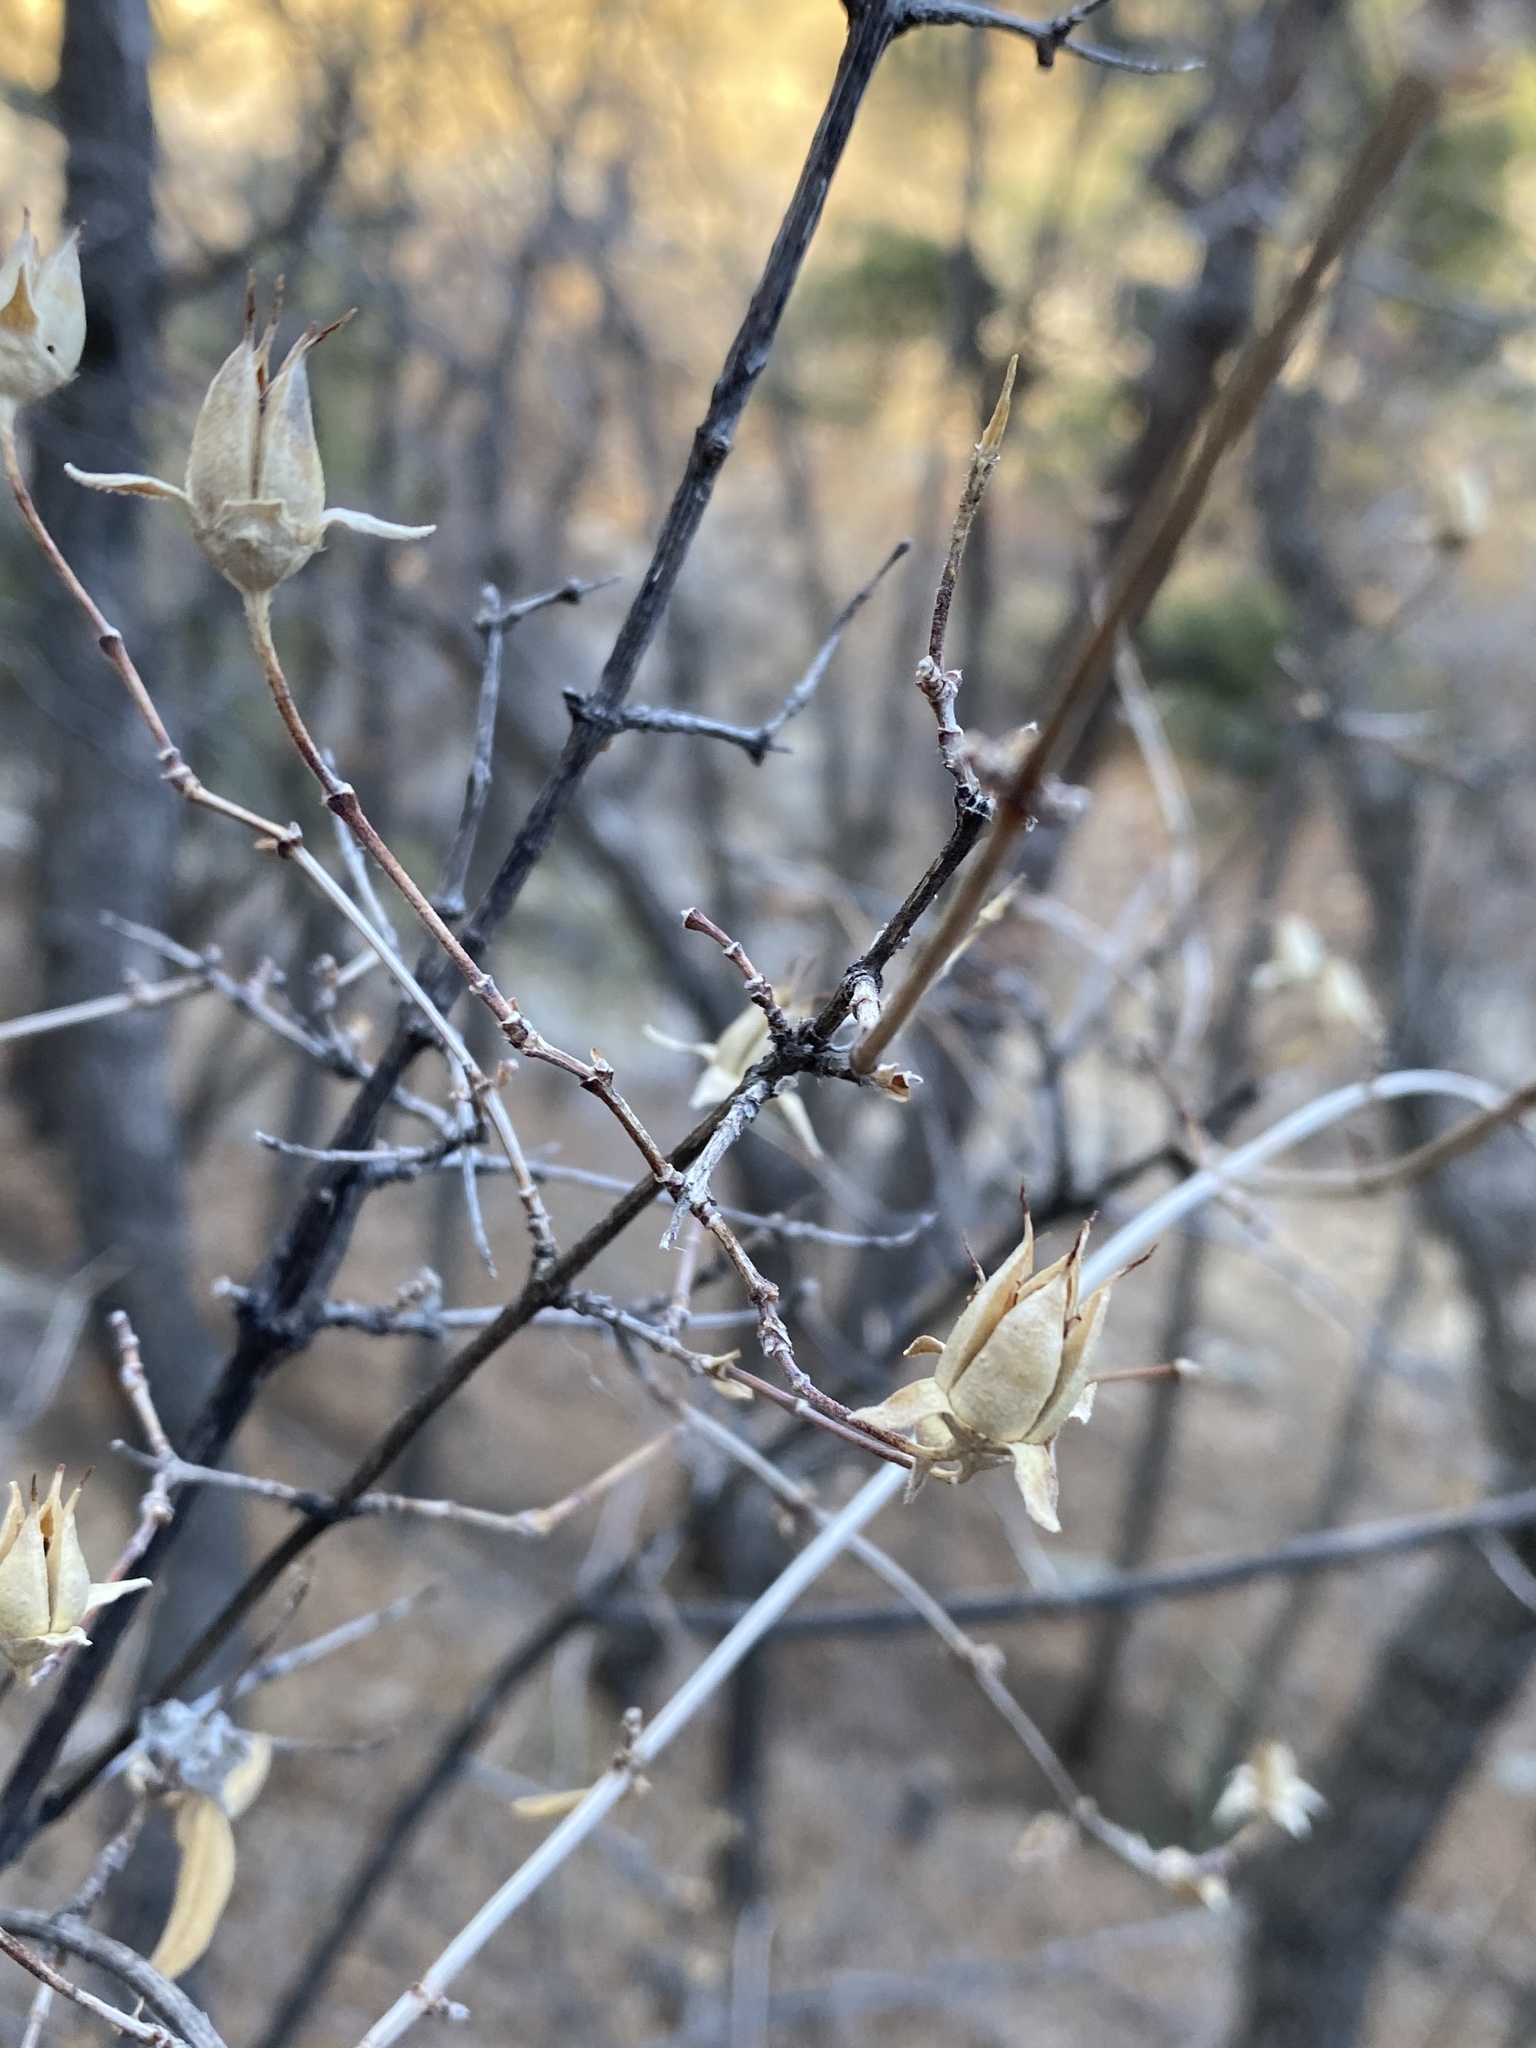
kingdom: Plantae
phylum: Tracheophyta
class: Magnoliopsida
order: Cornales
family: Hydrangeaceae
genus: Fendlera
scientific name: Fendlera rupicola
